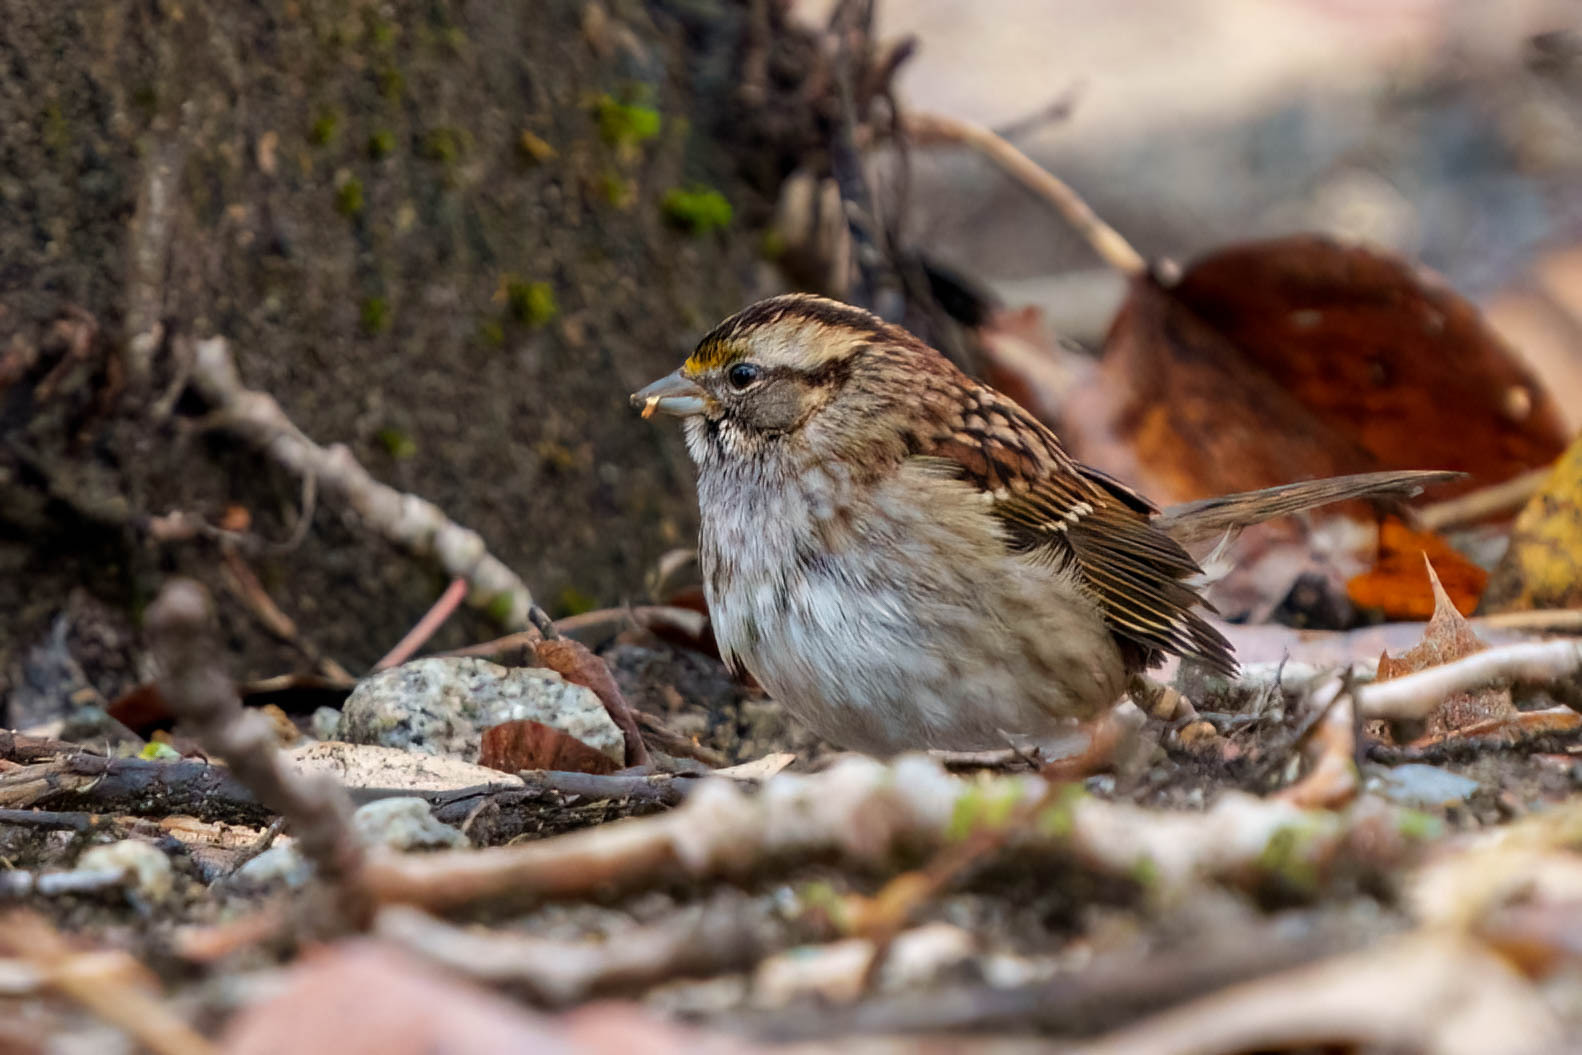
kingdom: Animalia
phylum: Chordata
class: Aves
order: Passeriformes
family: Passerellidae
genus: Zonotrichia
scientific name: Zonotrichia albicollis
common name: White-throated sparrow
